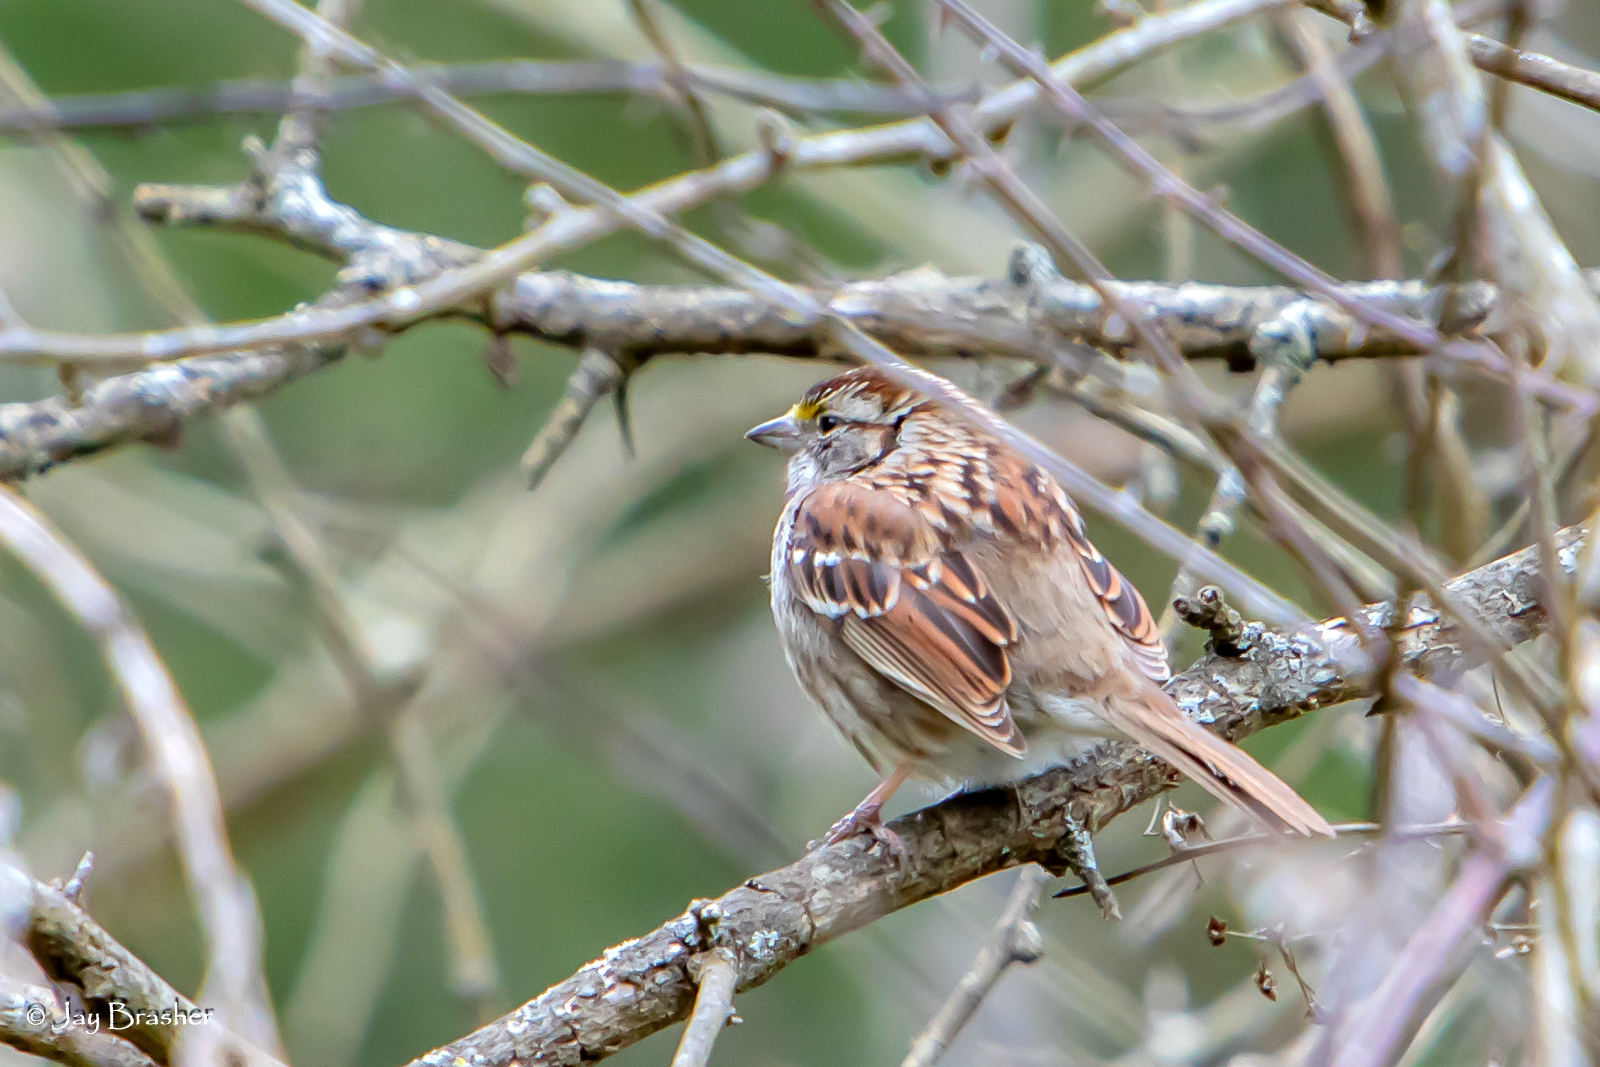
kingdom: Animalia
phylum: Chordata
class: Aves
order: Passeriformes
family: Passerellidae
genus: Zonotrichia
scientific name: Zonotrichia albicollis
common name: White-throated sparrow
